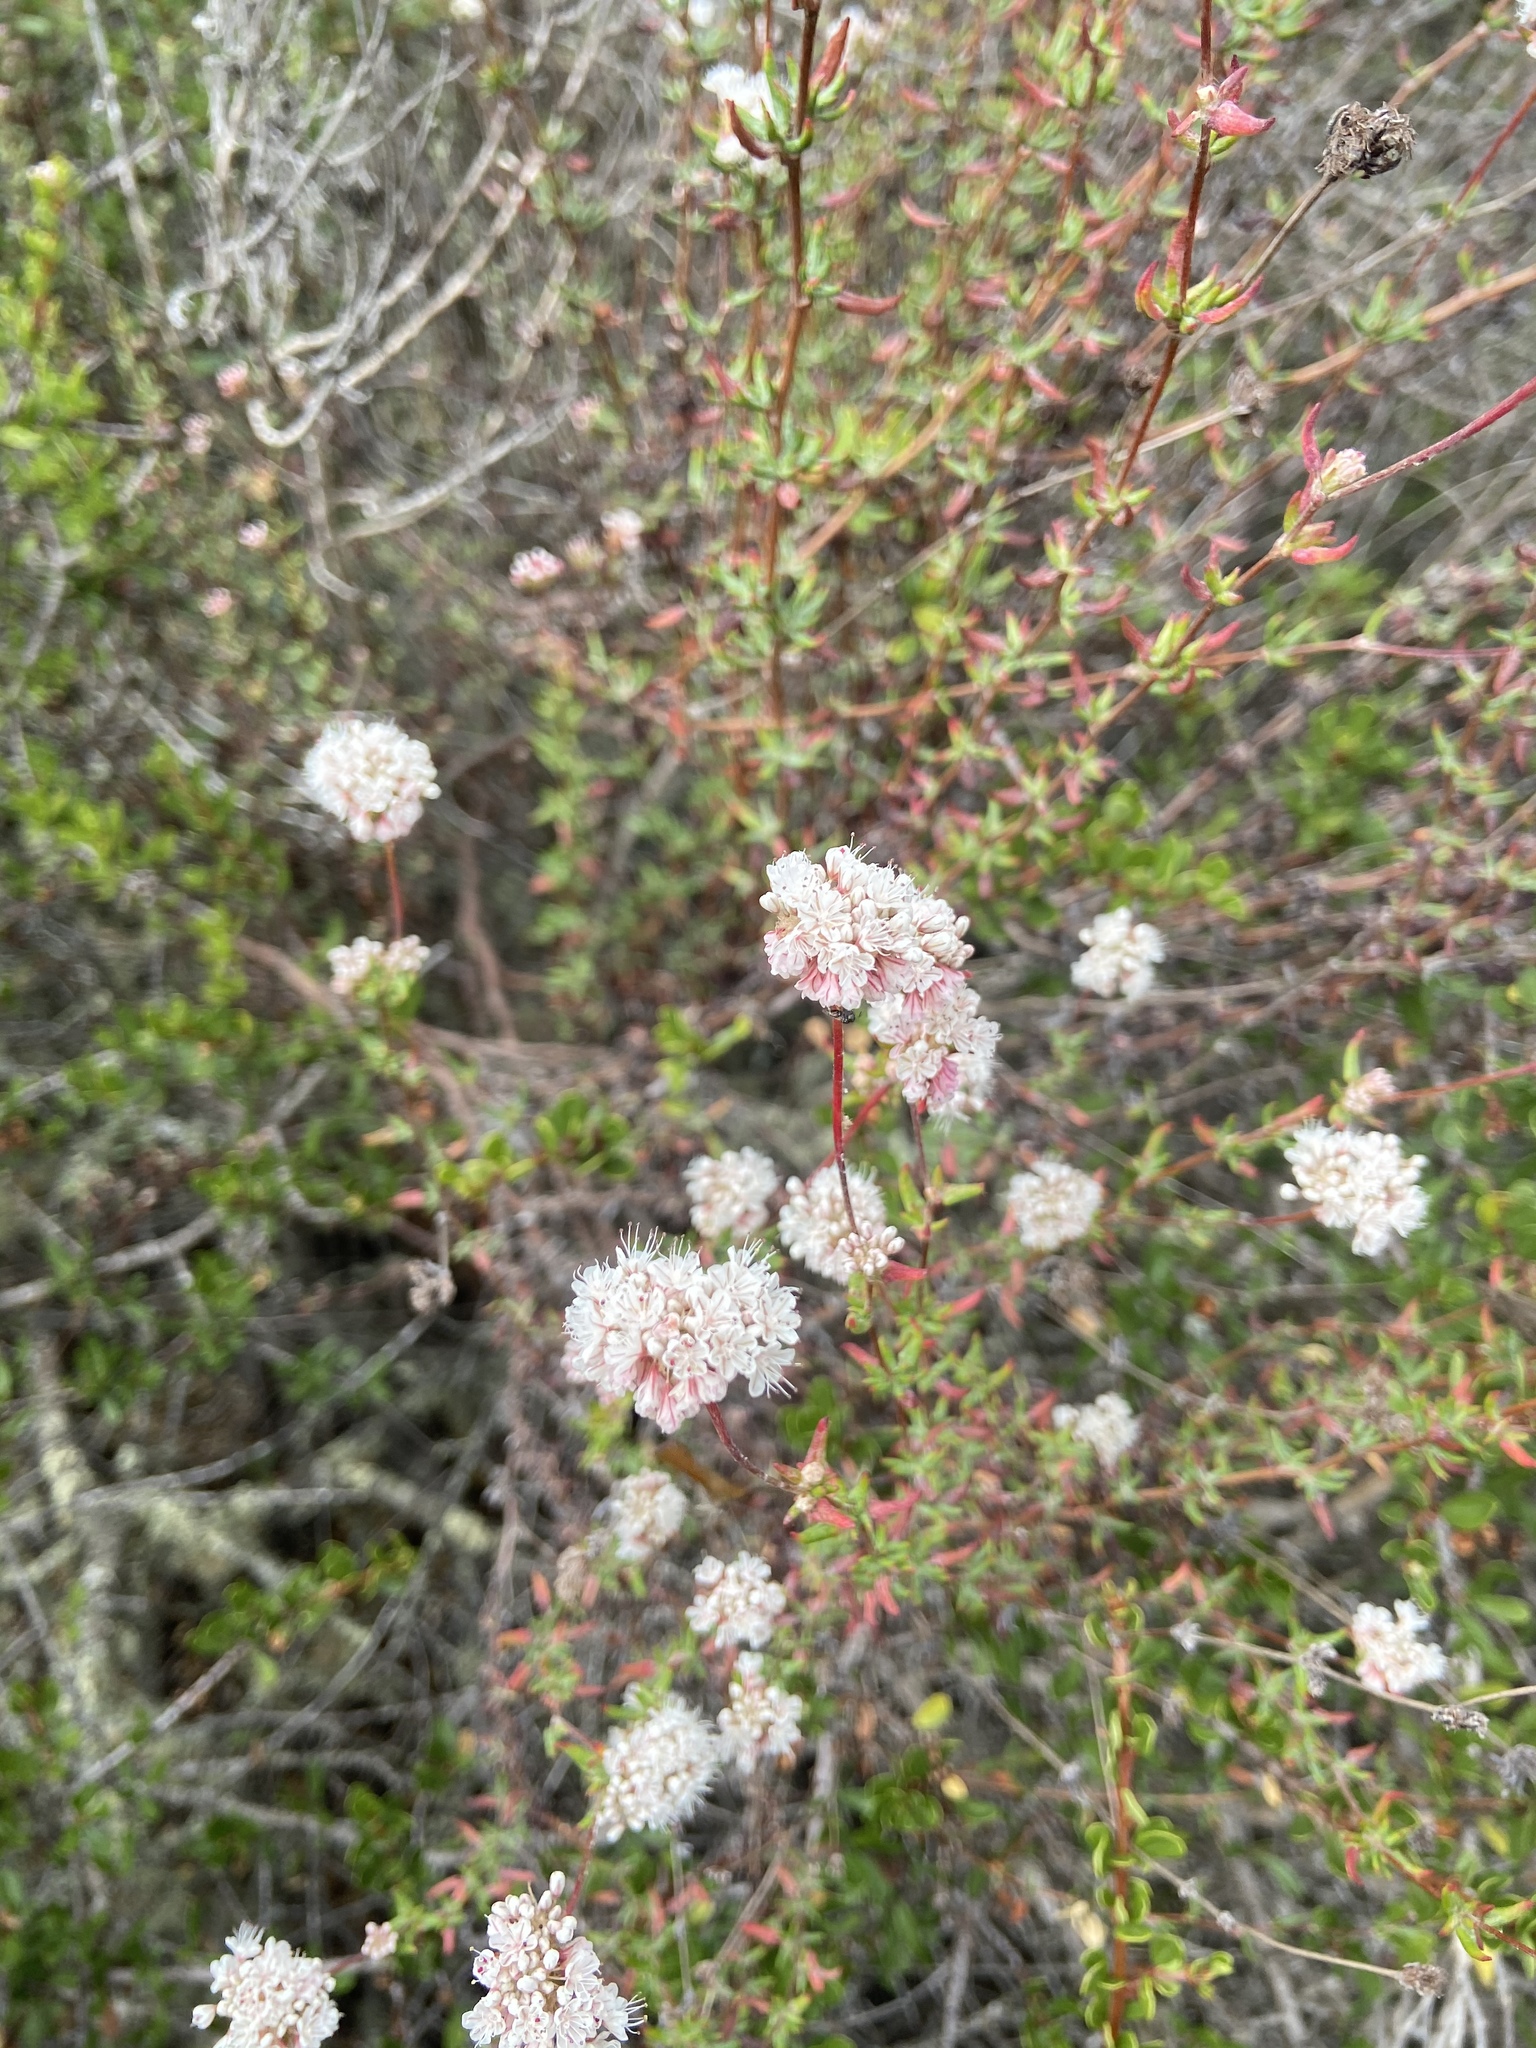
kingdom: Plantae
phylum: Tracheophyta
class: Magnoliopsida
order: Caryophyllales
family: Polygonaceae
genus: Eriogonum
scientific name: Eriogonum parvifolium
